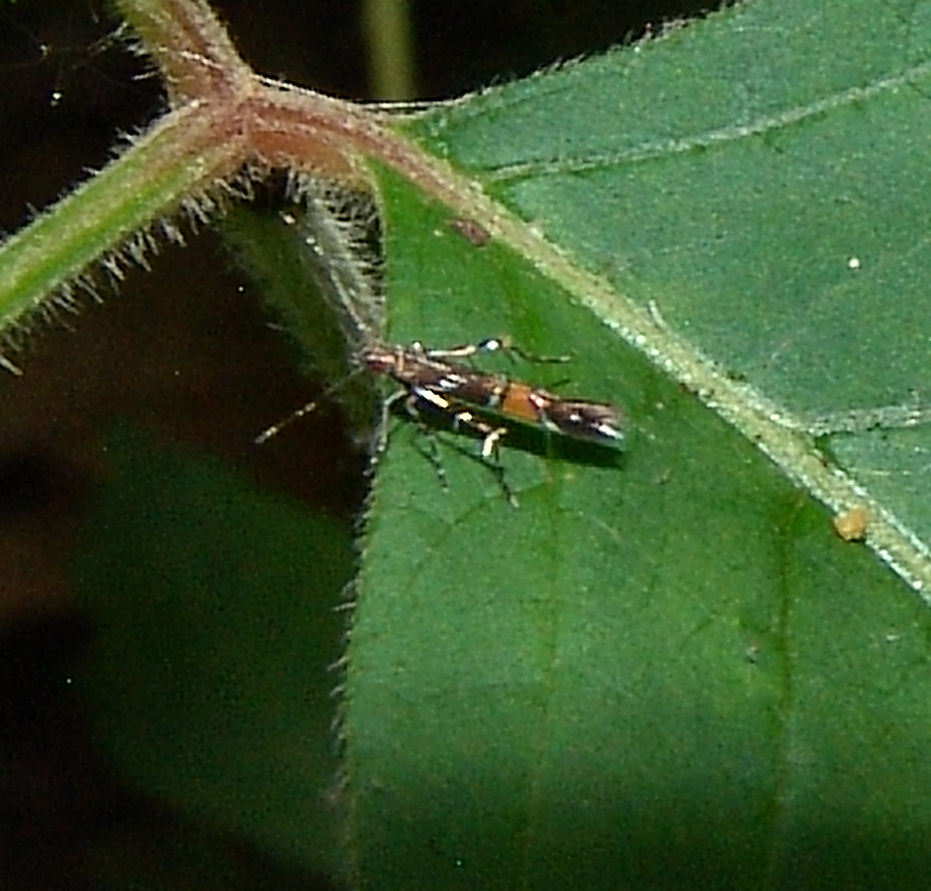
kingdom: Animalia
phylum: Arthropoda
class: Insecta
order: Lepidoptera
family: Cosmopterigidae
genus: Cosmopterix
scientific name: Cosmopterix pulchrimella
